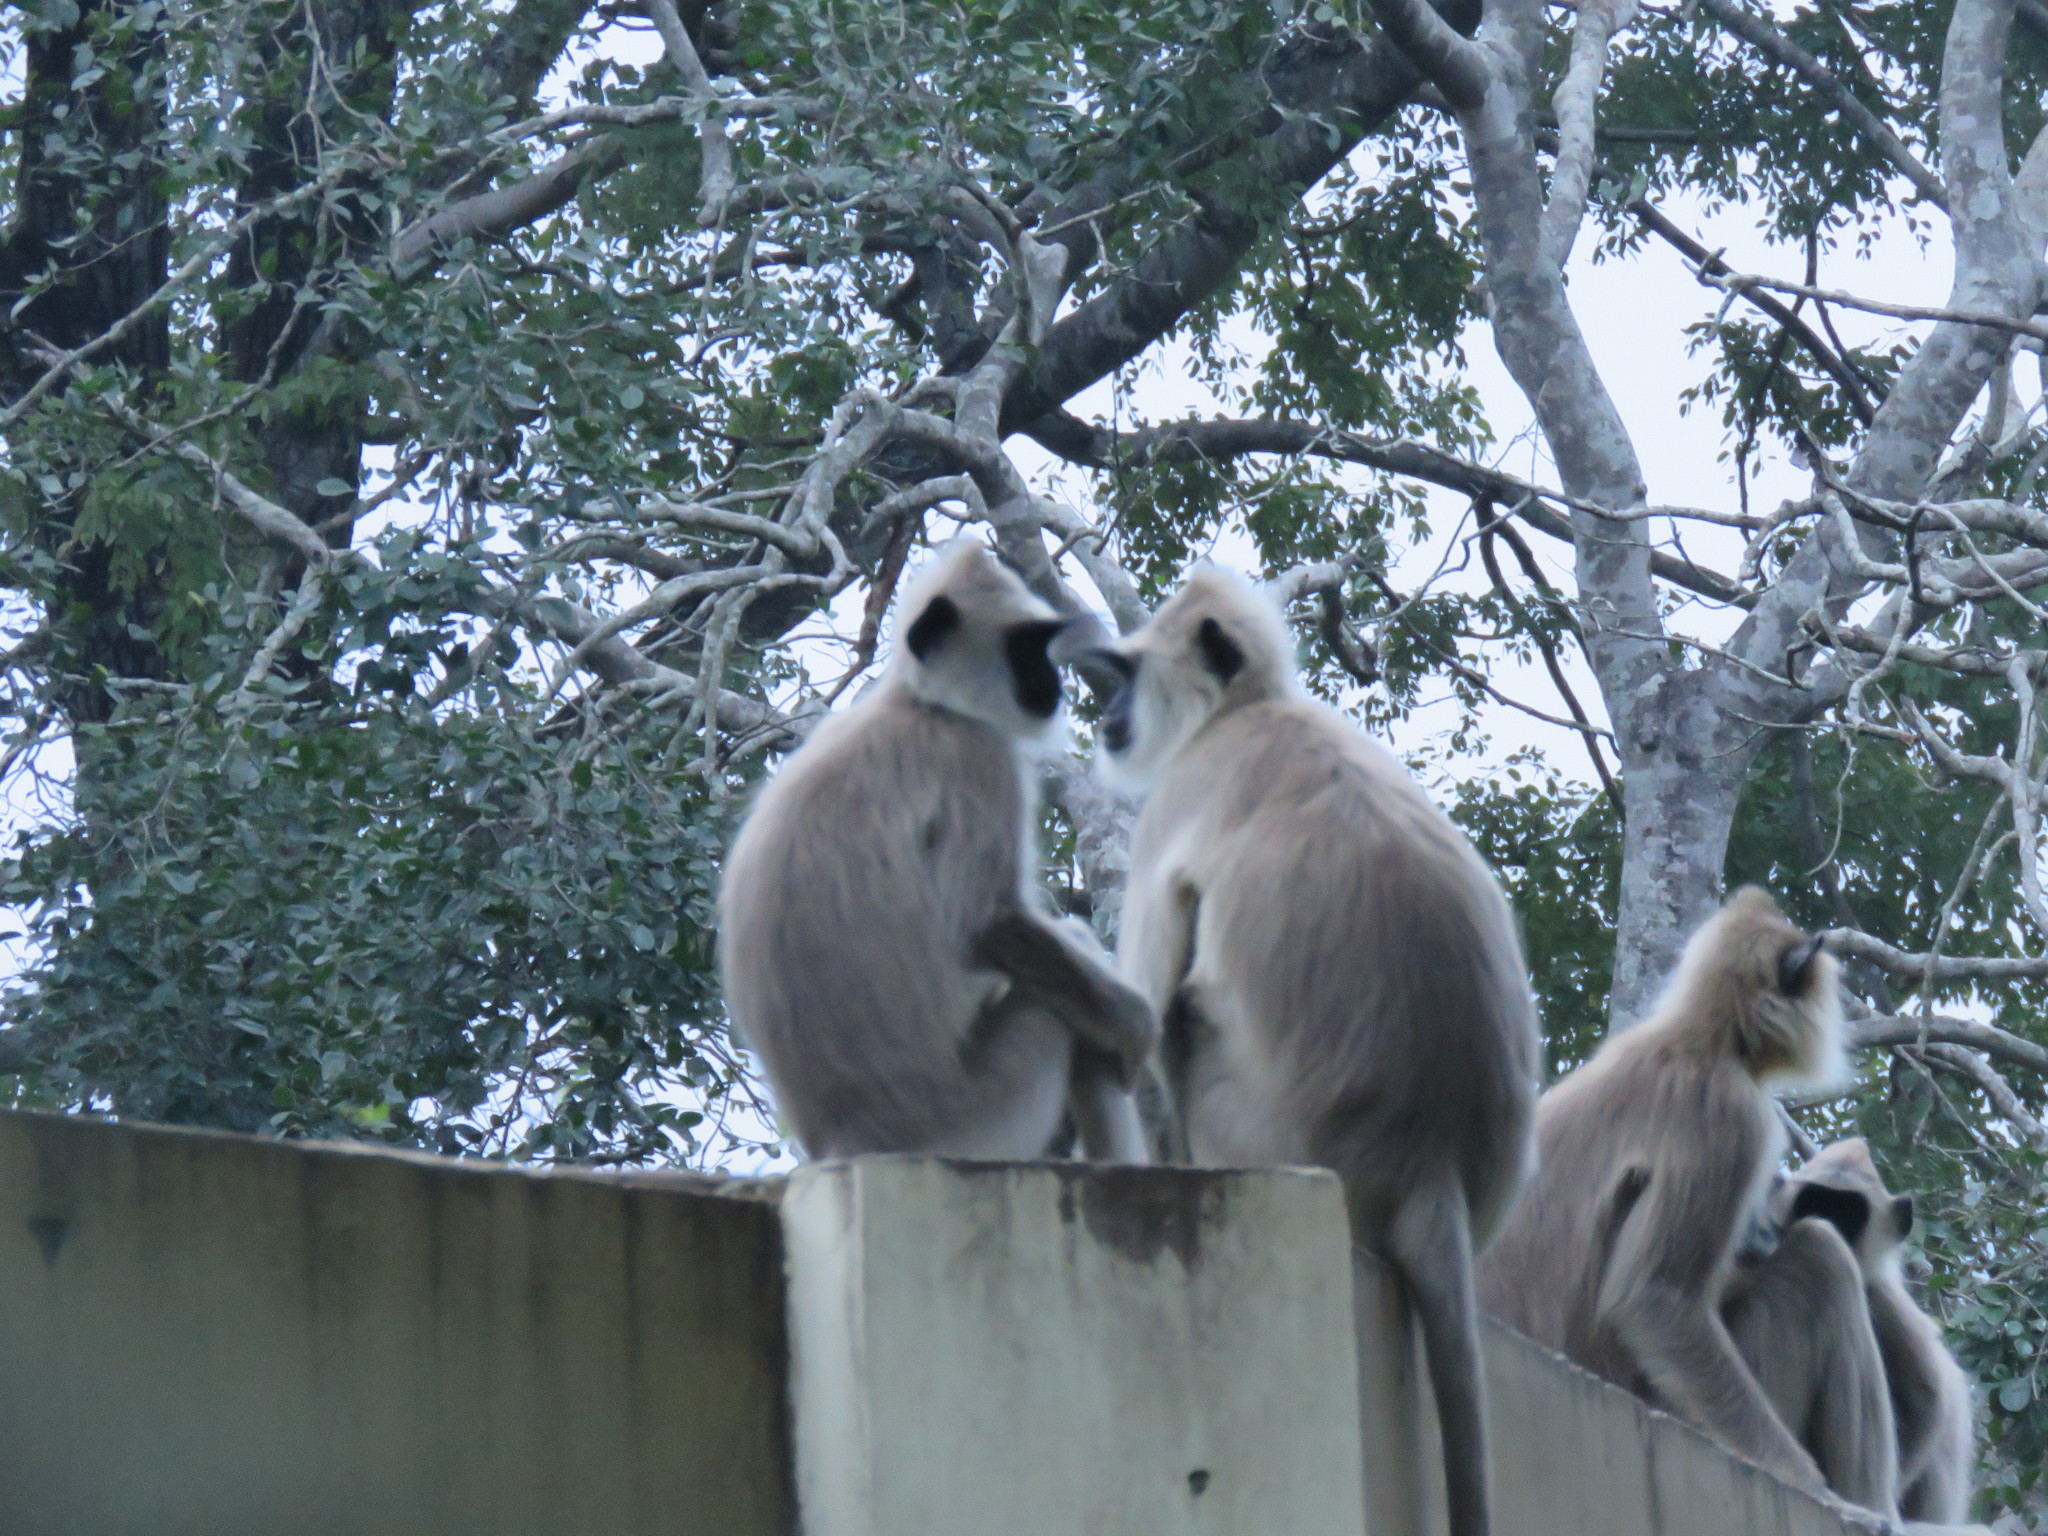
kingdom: Animalia
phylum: Chordata
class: Mammalia
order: Primates
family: Cercopithecidae
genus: Semnopithecus
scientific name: Semnopithecus priam
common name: Tufted gray langur
